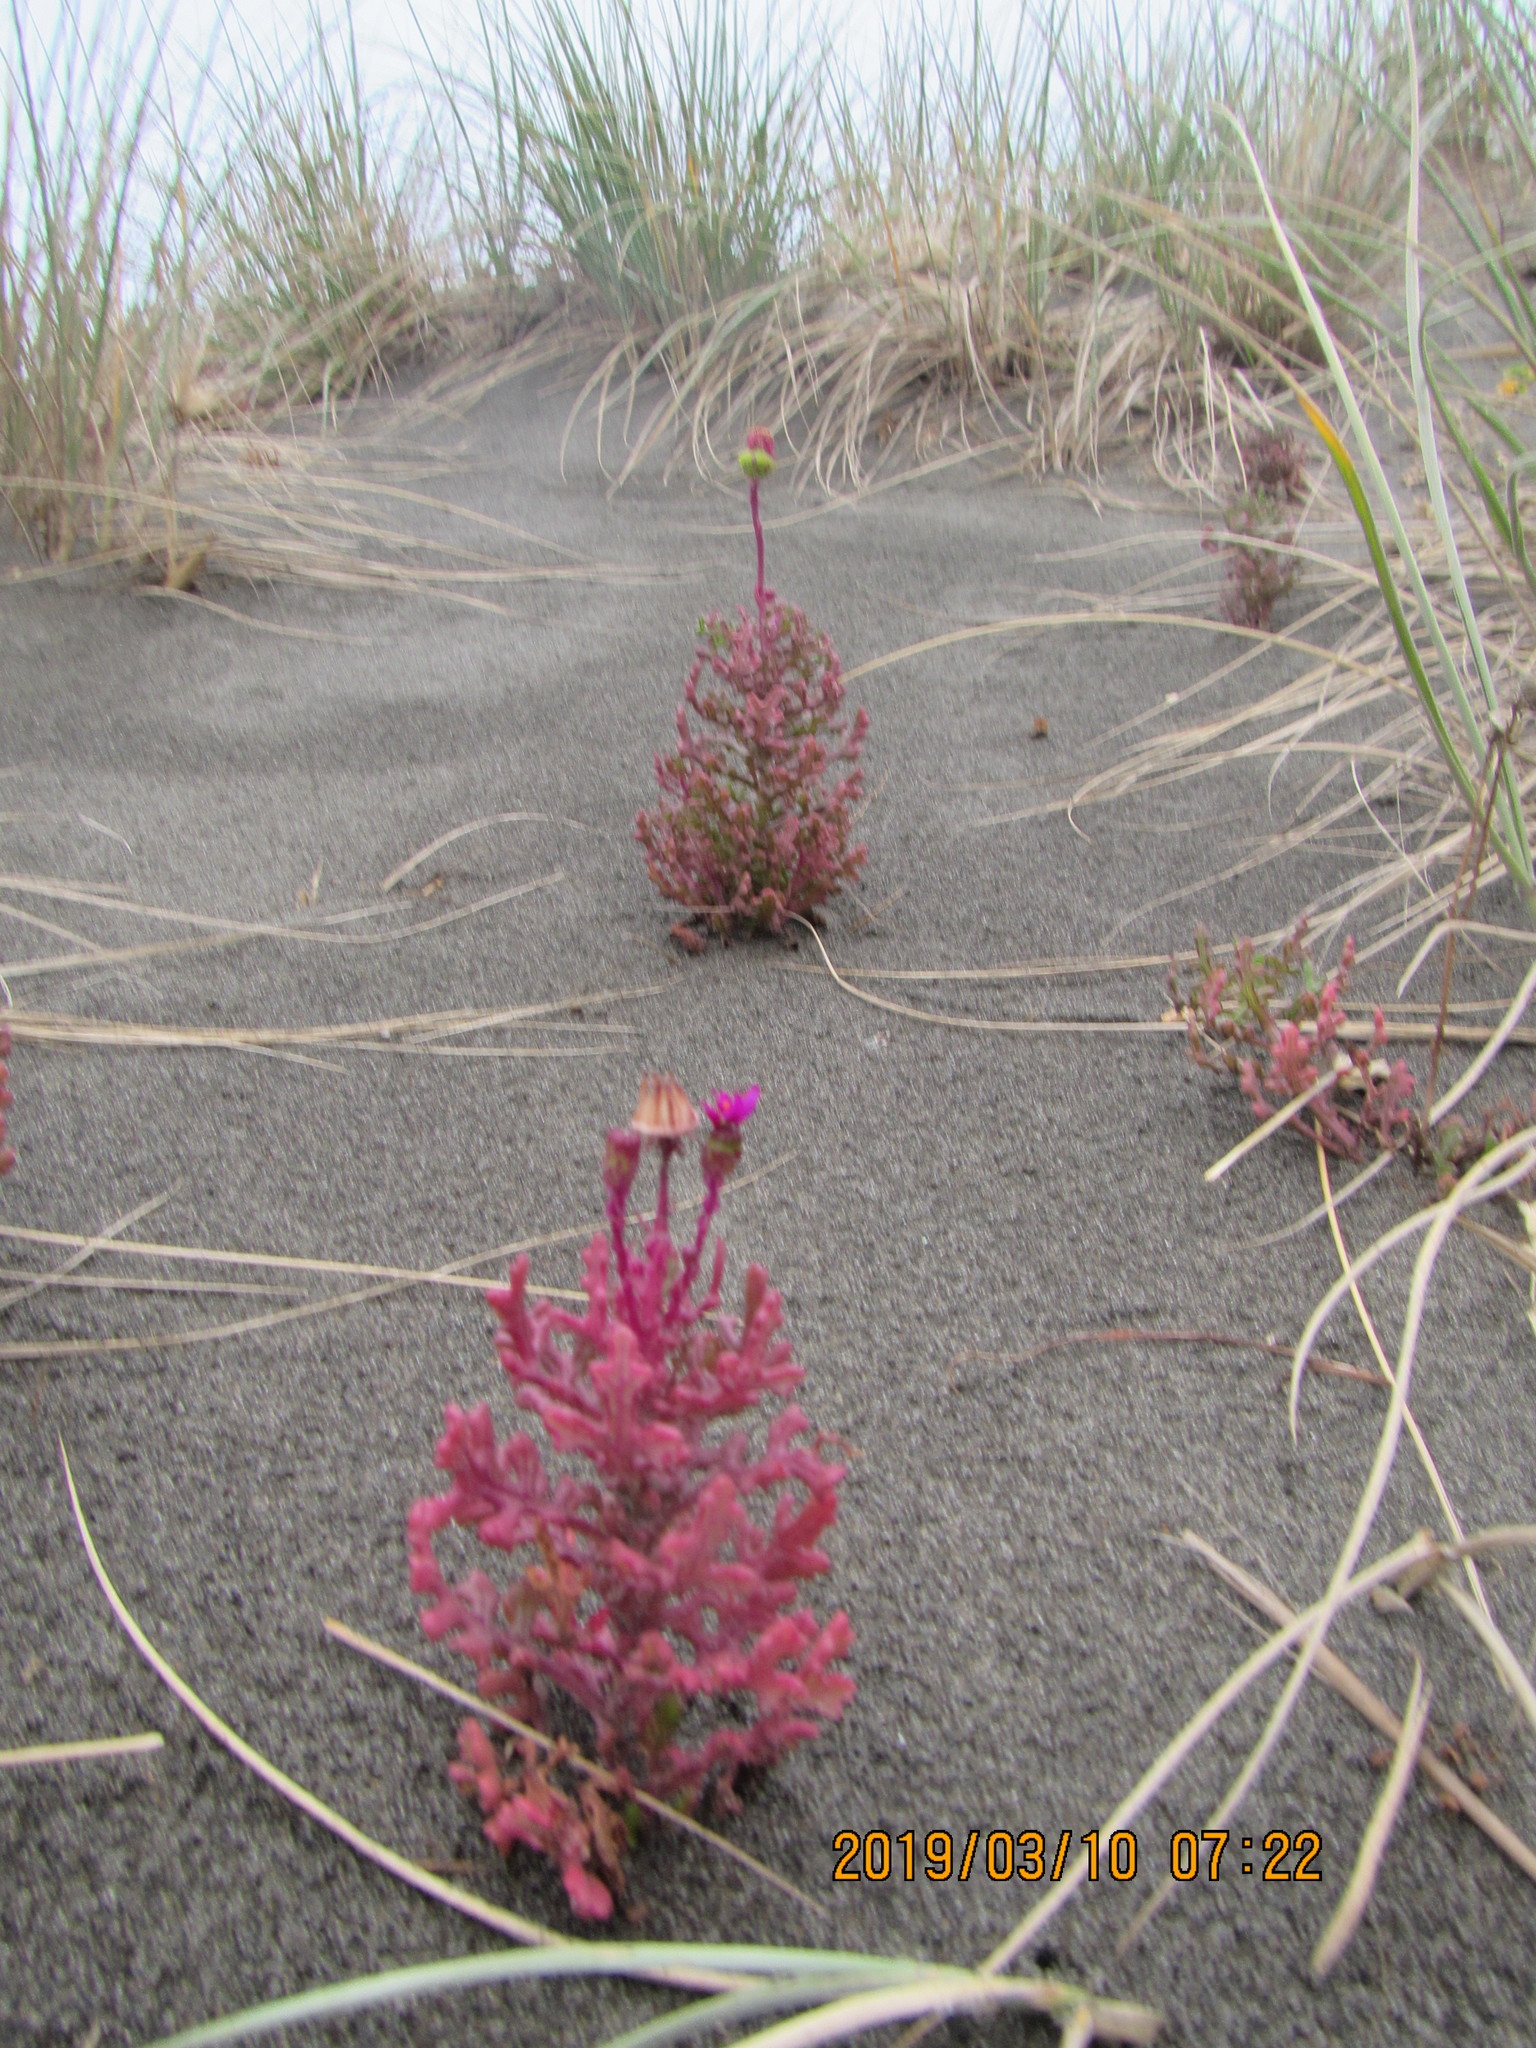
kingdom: Plantae
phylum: Tracheophyta
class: Magnoliopsida
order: Asterales
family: Asteraceae
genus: Senecio
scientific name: Senecio elegans
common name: Purple groundsel
